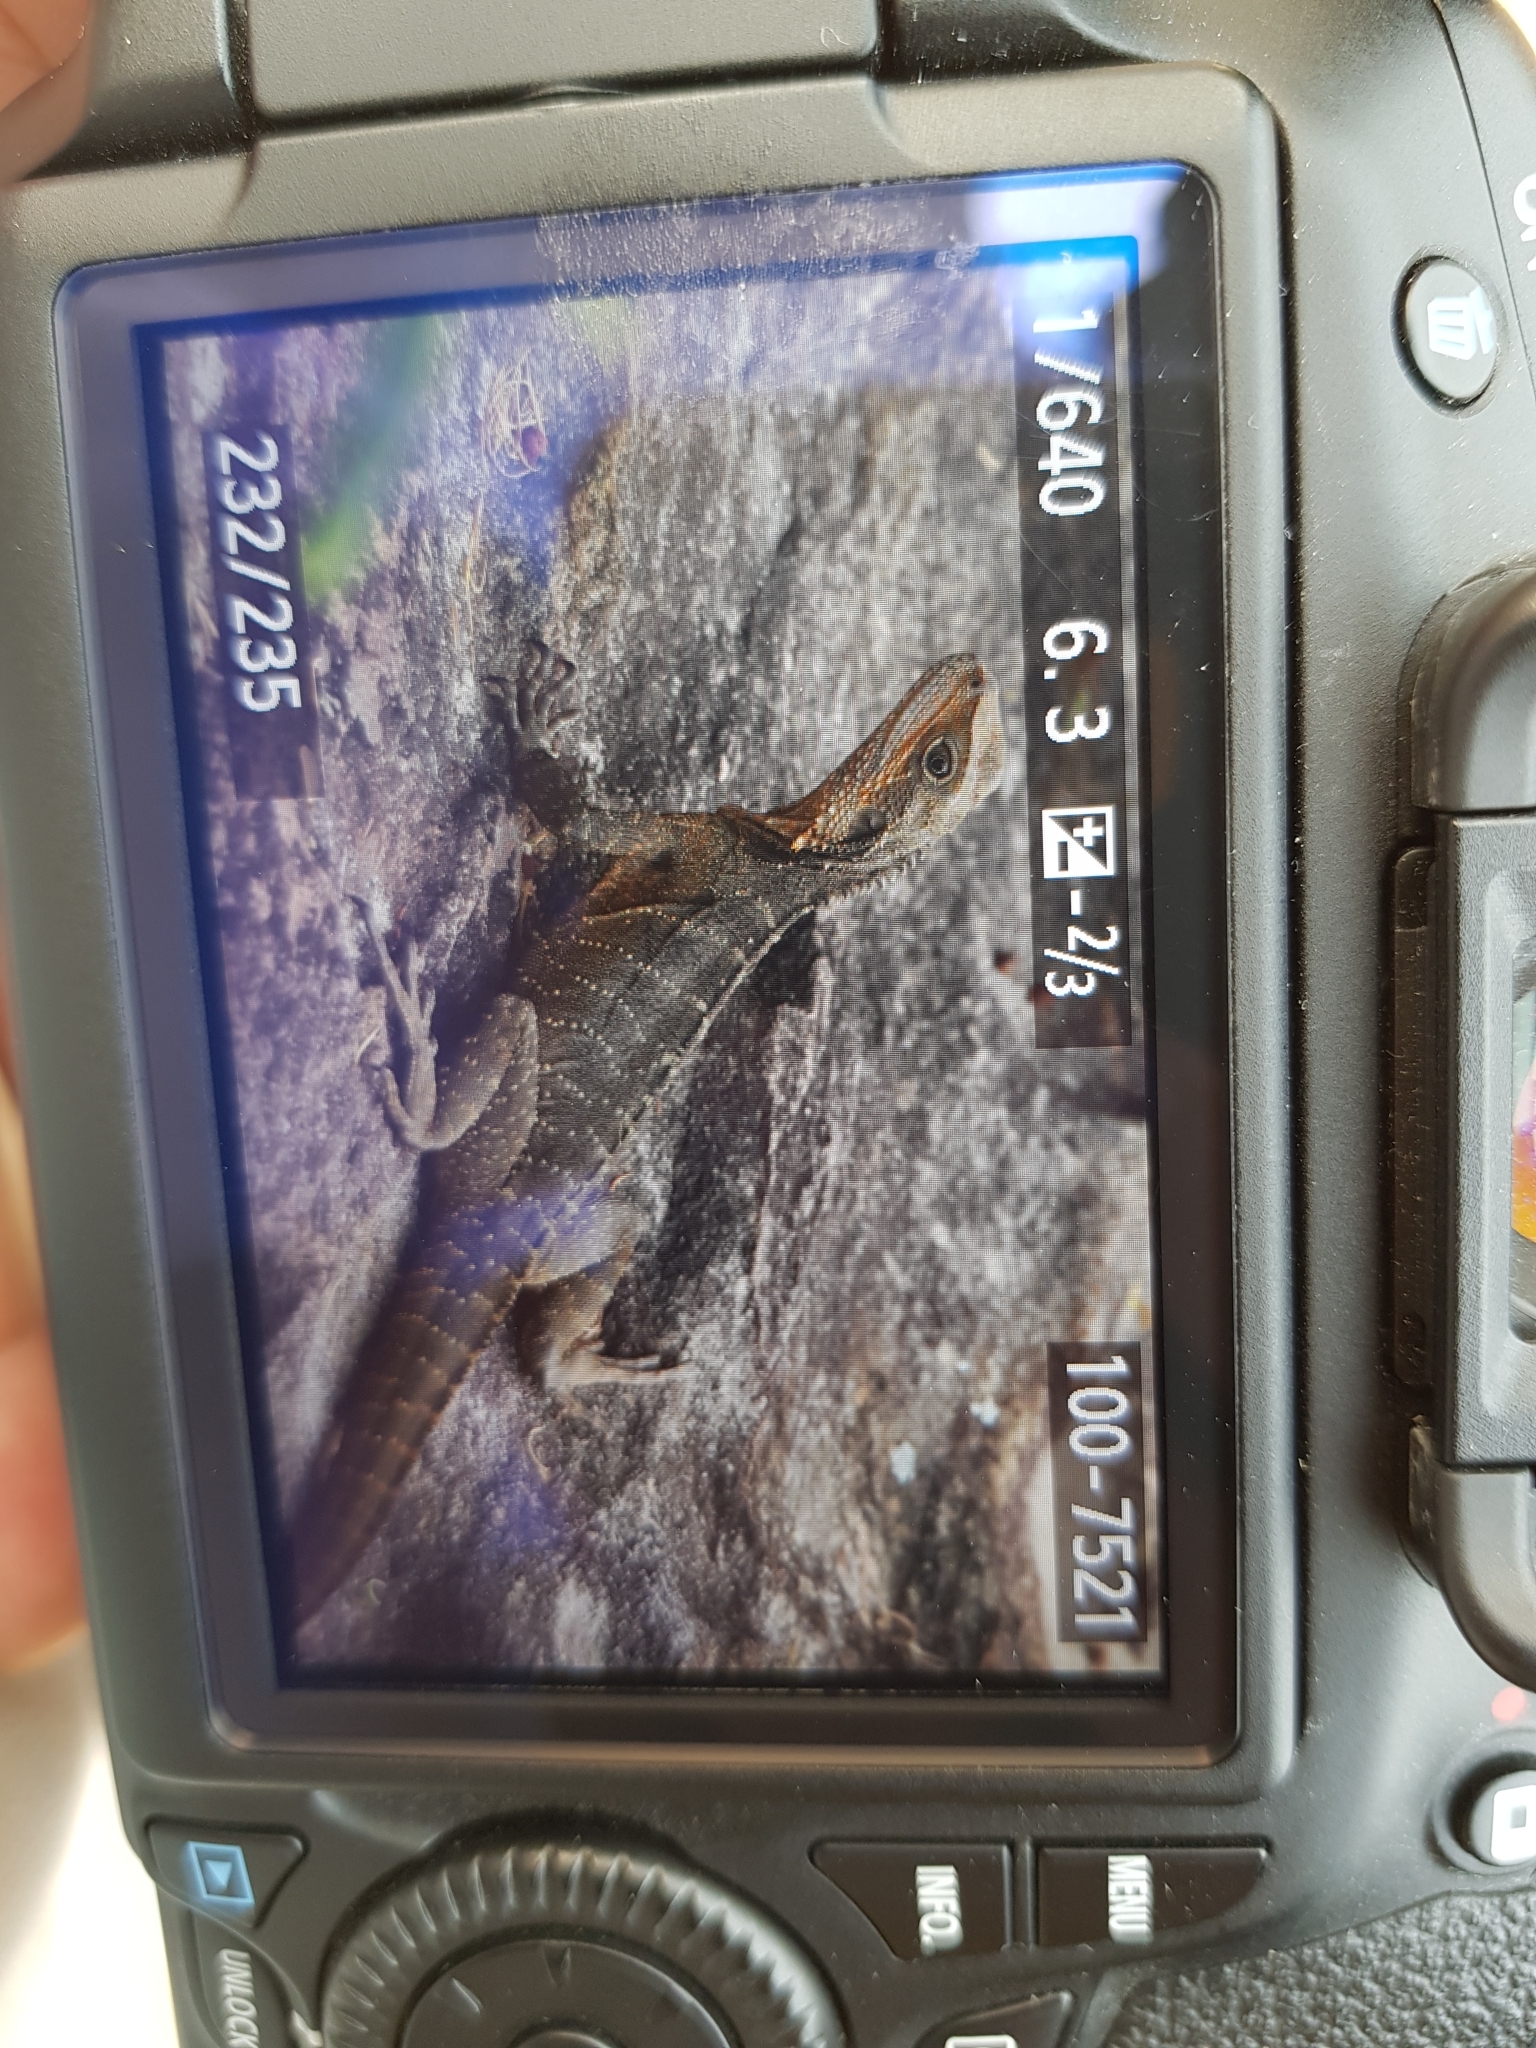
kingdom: Animalia
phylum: Chordata
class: Squamata
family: Agamidae
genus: Intellagama
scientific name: Intellagama lesueurii
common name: Eastern water dragon
